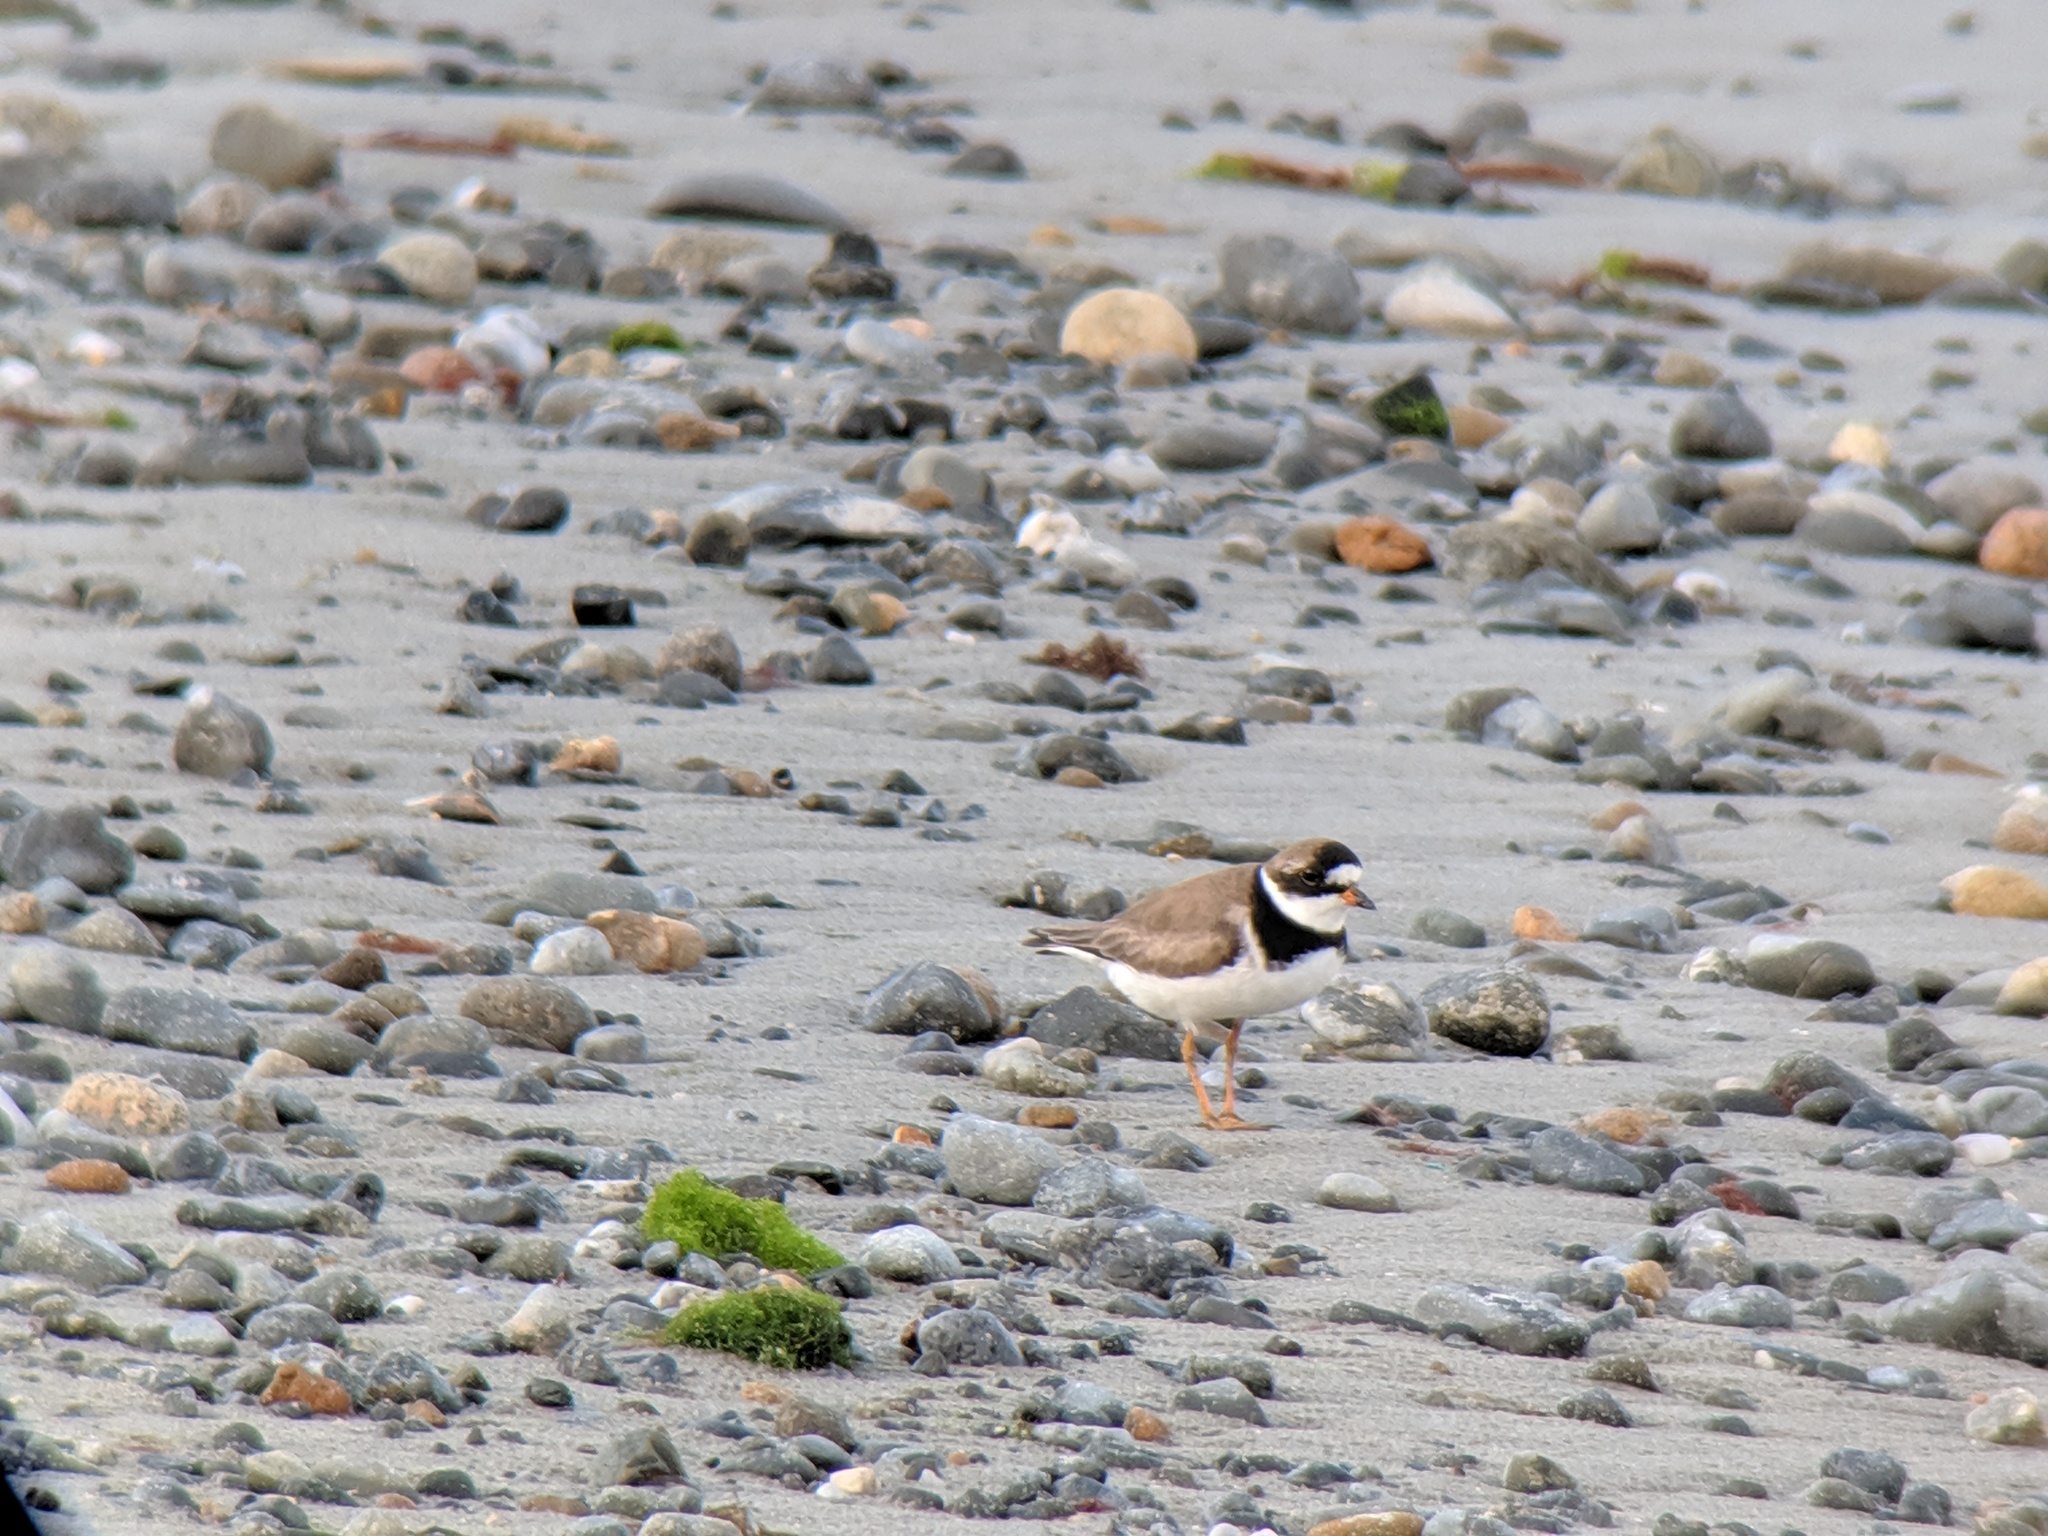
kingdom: Animalia
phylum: Chordata
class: Aves
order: Charadriiformes
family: Charadriidae
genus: Charadrius
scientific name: Charadrius semipalmatus
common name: Semipalmated plover
